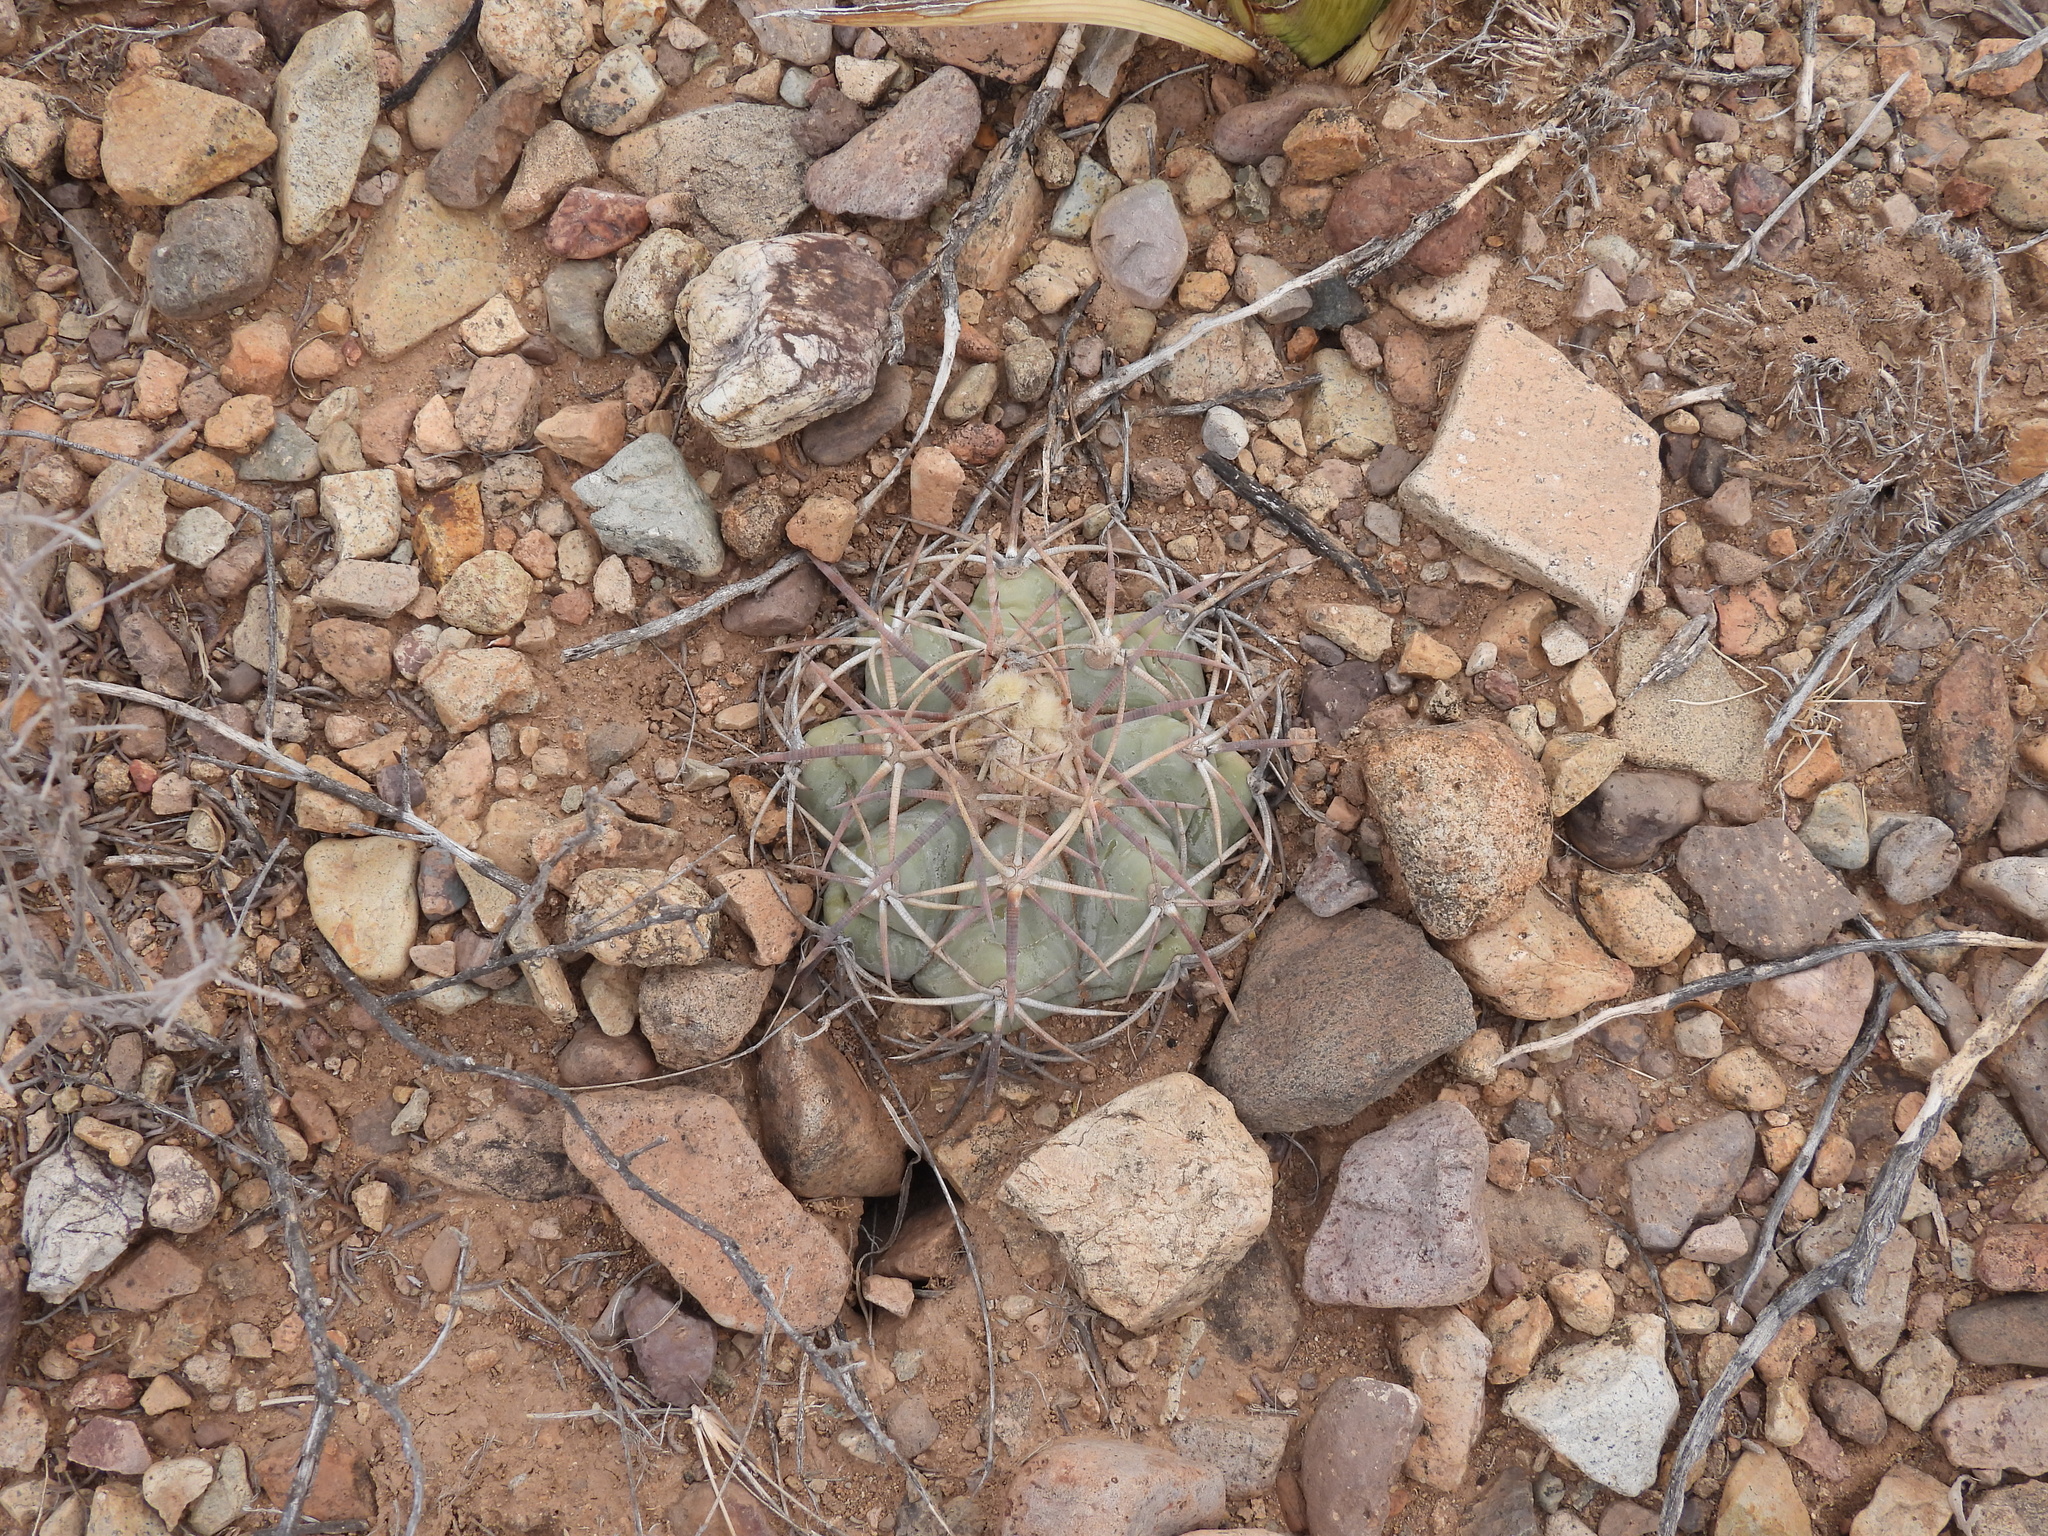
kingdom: Plantae
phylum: Tracheophyta
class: Magnoliopsida
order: Caryophyllales
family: Cactaceae
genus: Echinocactus
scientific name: Echinocactus horizonthalonius
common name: Devilshead
